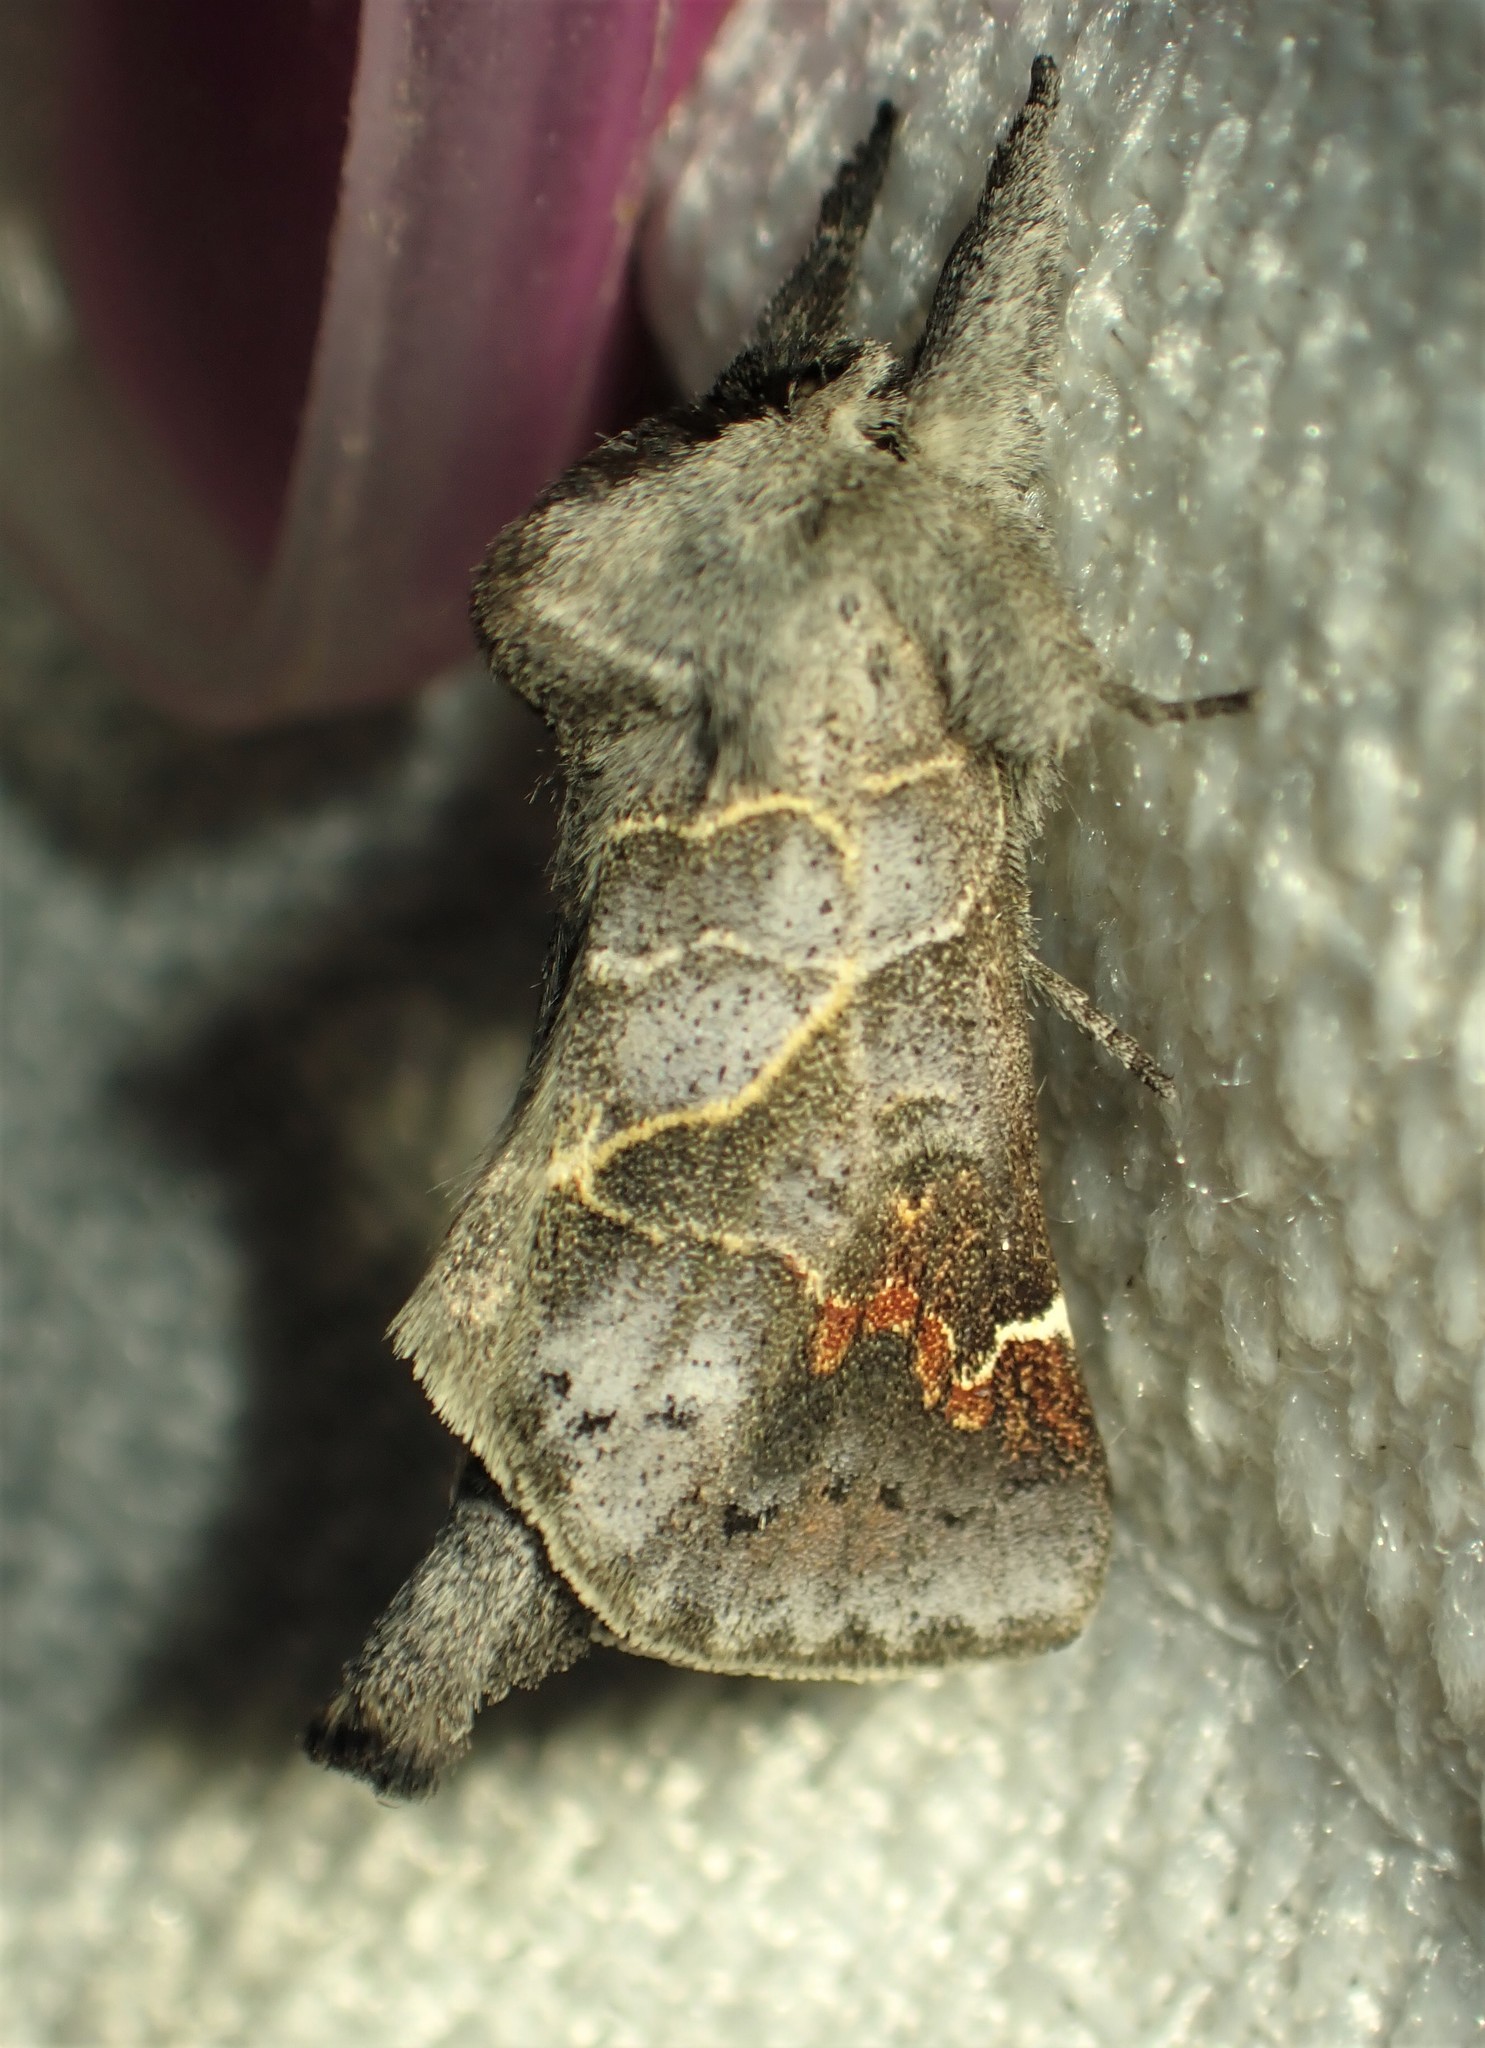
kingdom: Animalia
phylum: Arthropoda
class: Insecta
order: Lepidoptera
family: Notodontidae
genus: Clostera
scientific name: Clostera apicalis
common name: Apical prominent
